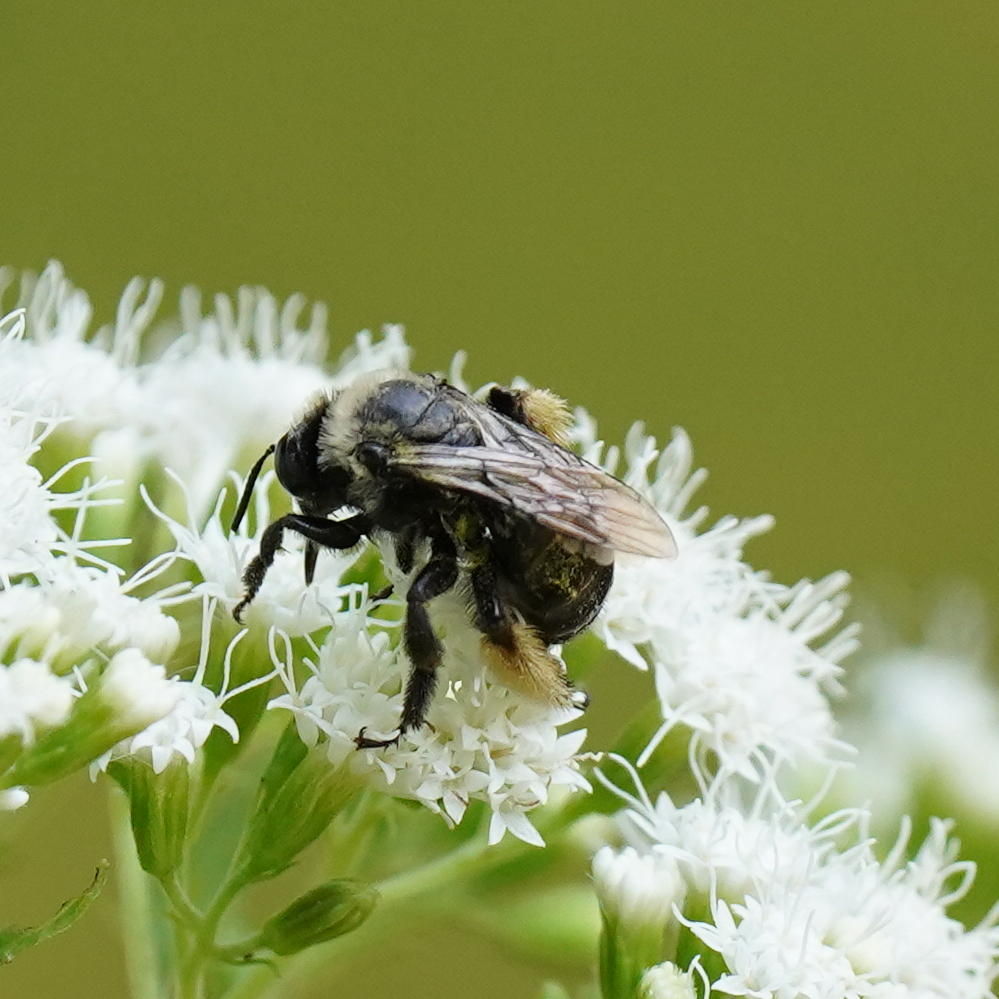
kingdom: Animalia
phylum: Arthropoda
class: Insecta
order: Hymenoptera
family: Apidae
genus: Melissodes
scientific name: Melissodes desponsus
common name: Thistle long-horned bee
